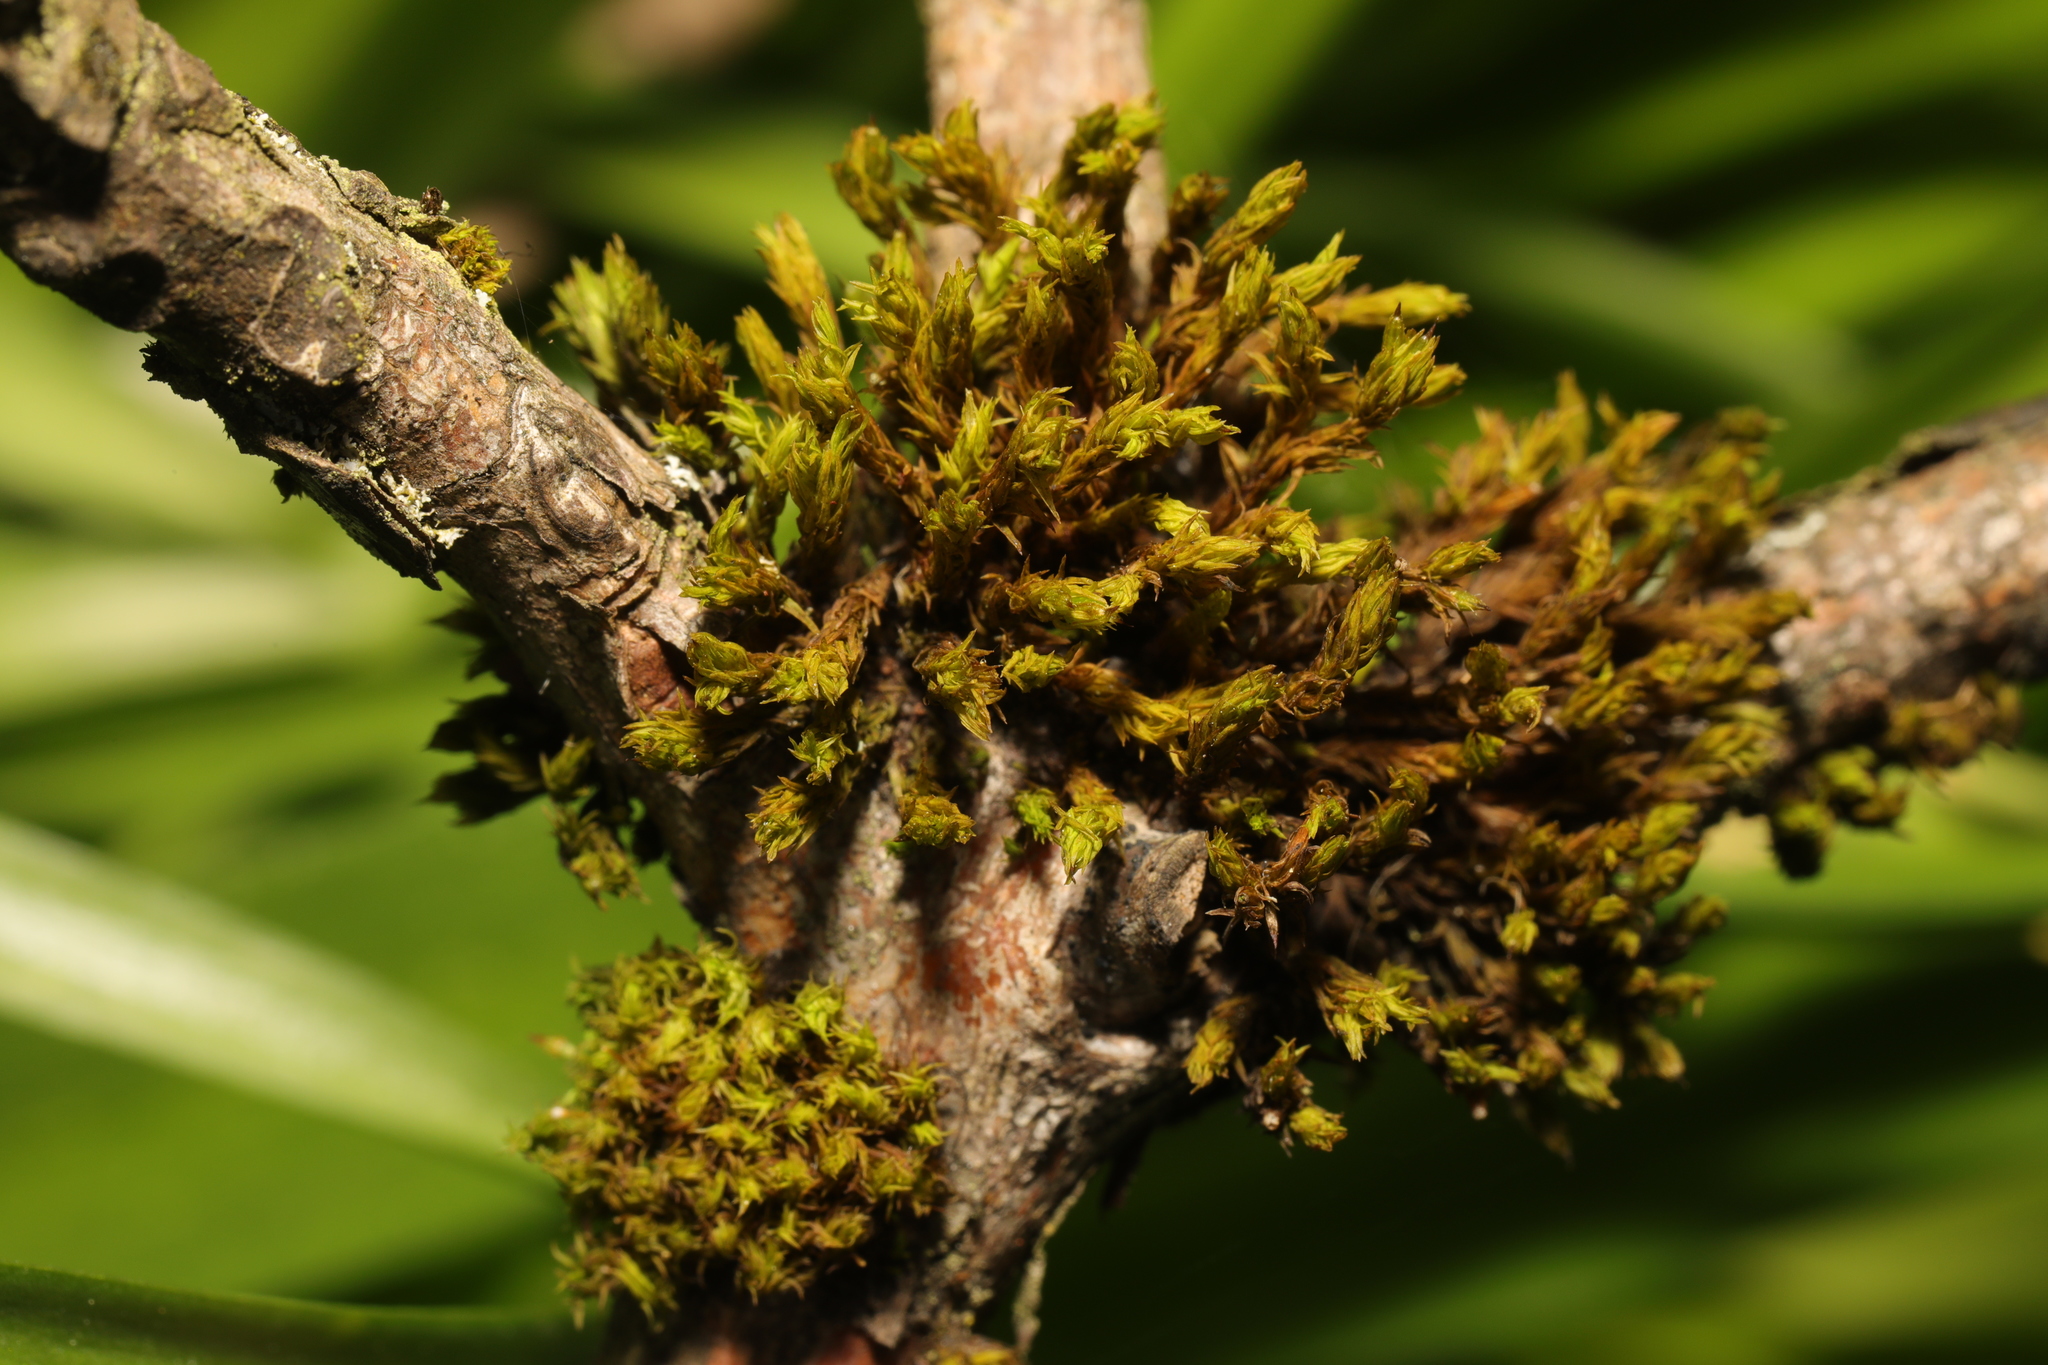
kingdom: Plantae
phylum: Bryophyta
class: Bryopsida
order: Orthotrichales
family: Orthotrichaceae
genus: Lewinskya
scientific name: Lewinskya affinis
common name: Wood bristle-moss
